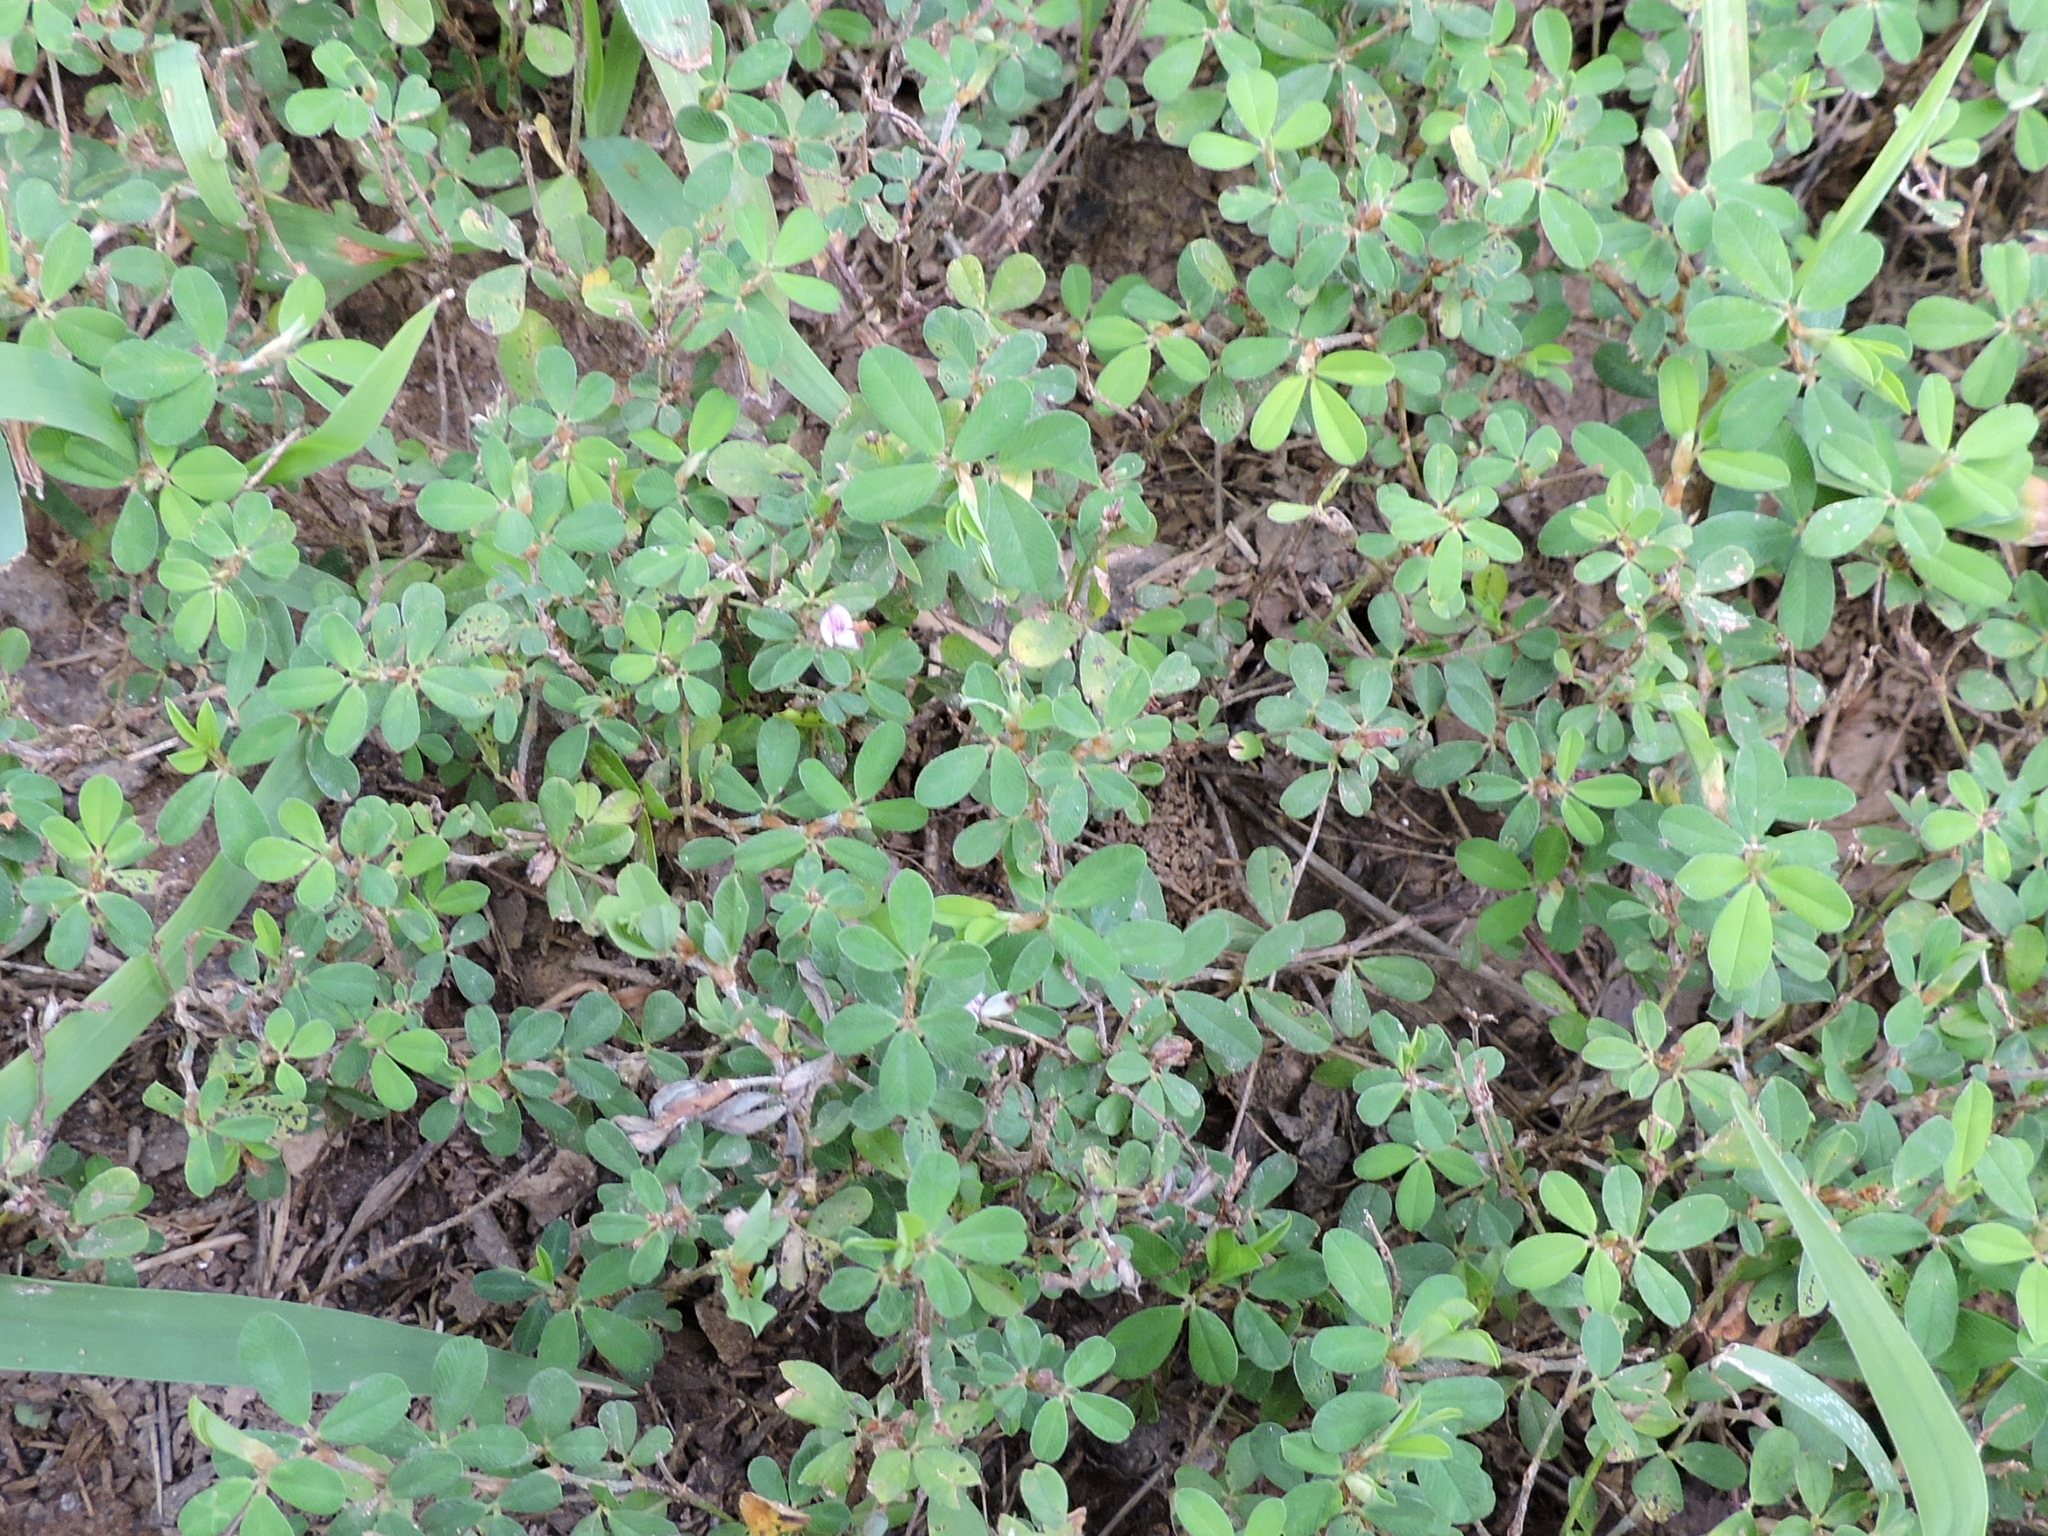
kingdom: Plantae
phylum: Tracheophyta
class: Magnoliopsida
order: Fabales
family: Fabaceae
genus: Kummerowia
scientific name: Kummerowia striata
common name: Japanese clover
